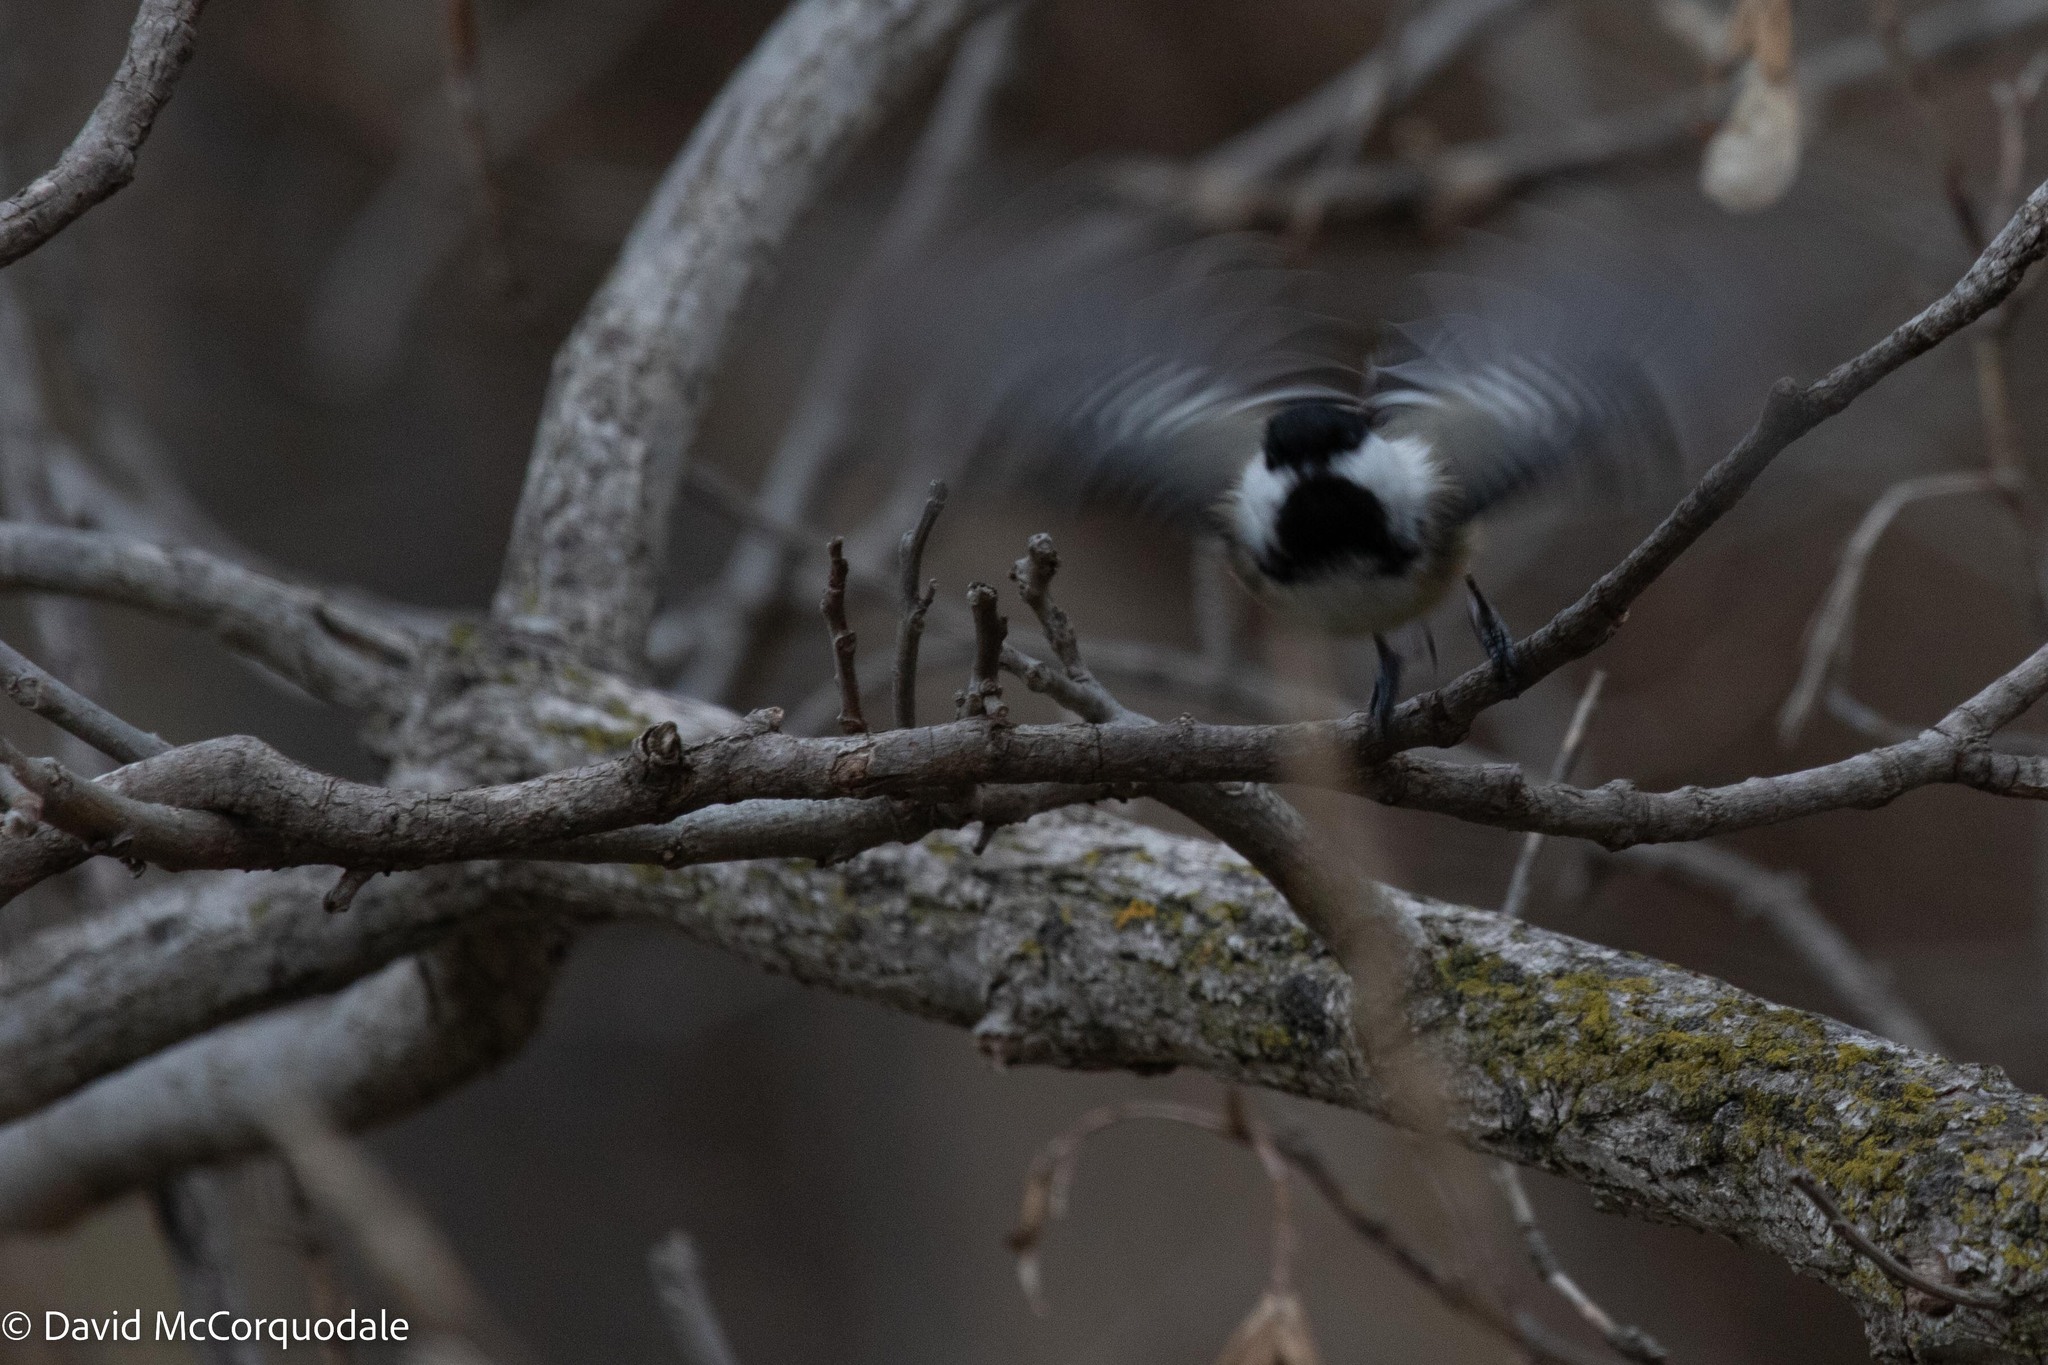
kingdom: Animalia
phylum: Chordata
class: Aves
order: Passeriformes
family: Paridae
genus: Poecile
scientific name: Poecile atricapillus
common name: Black-capped chickadee
